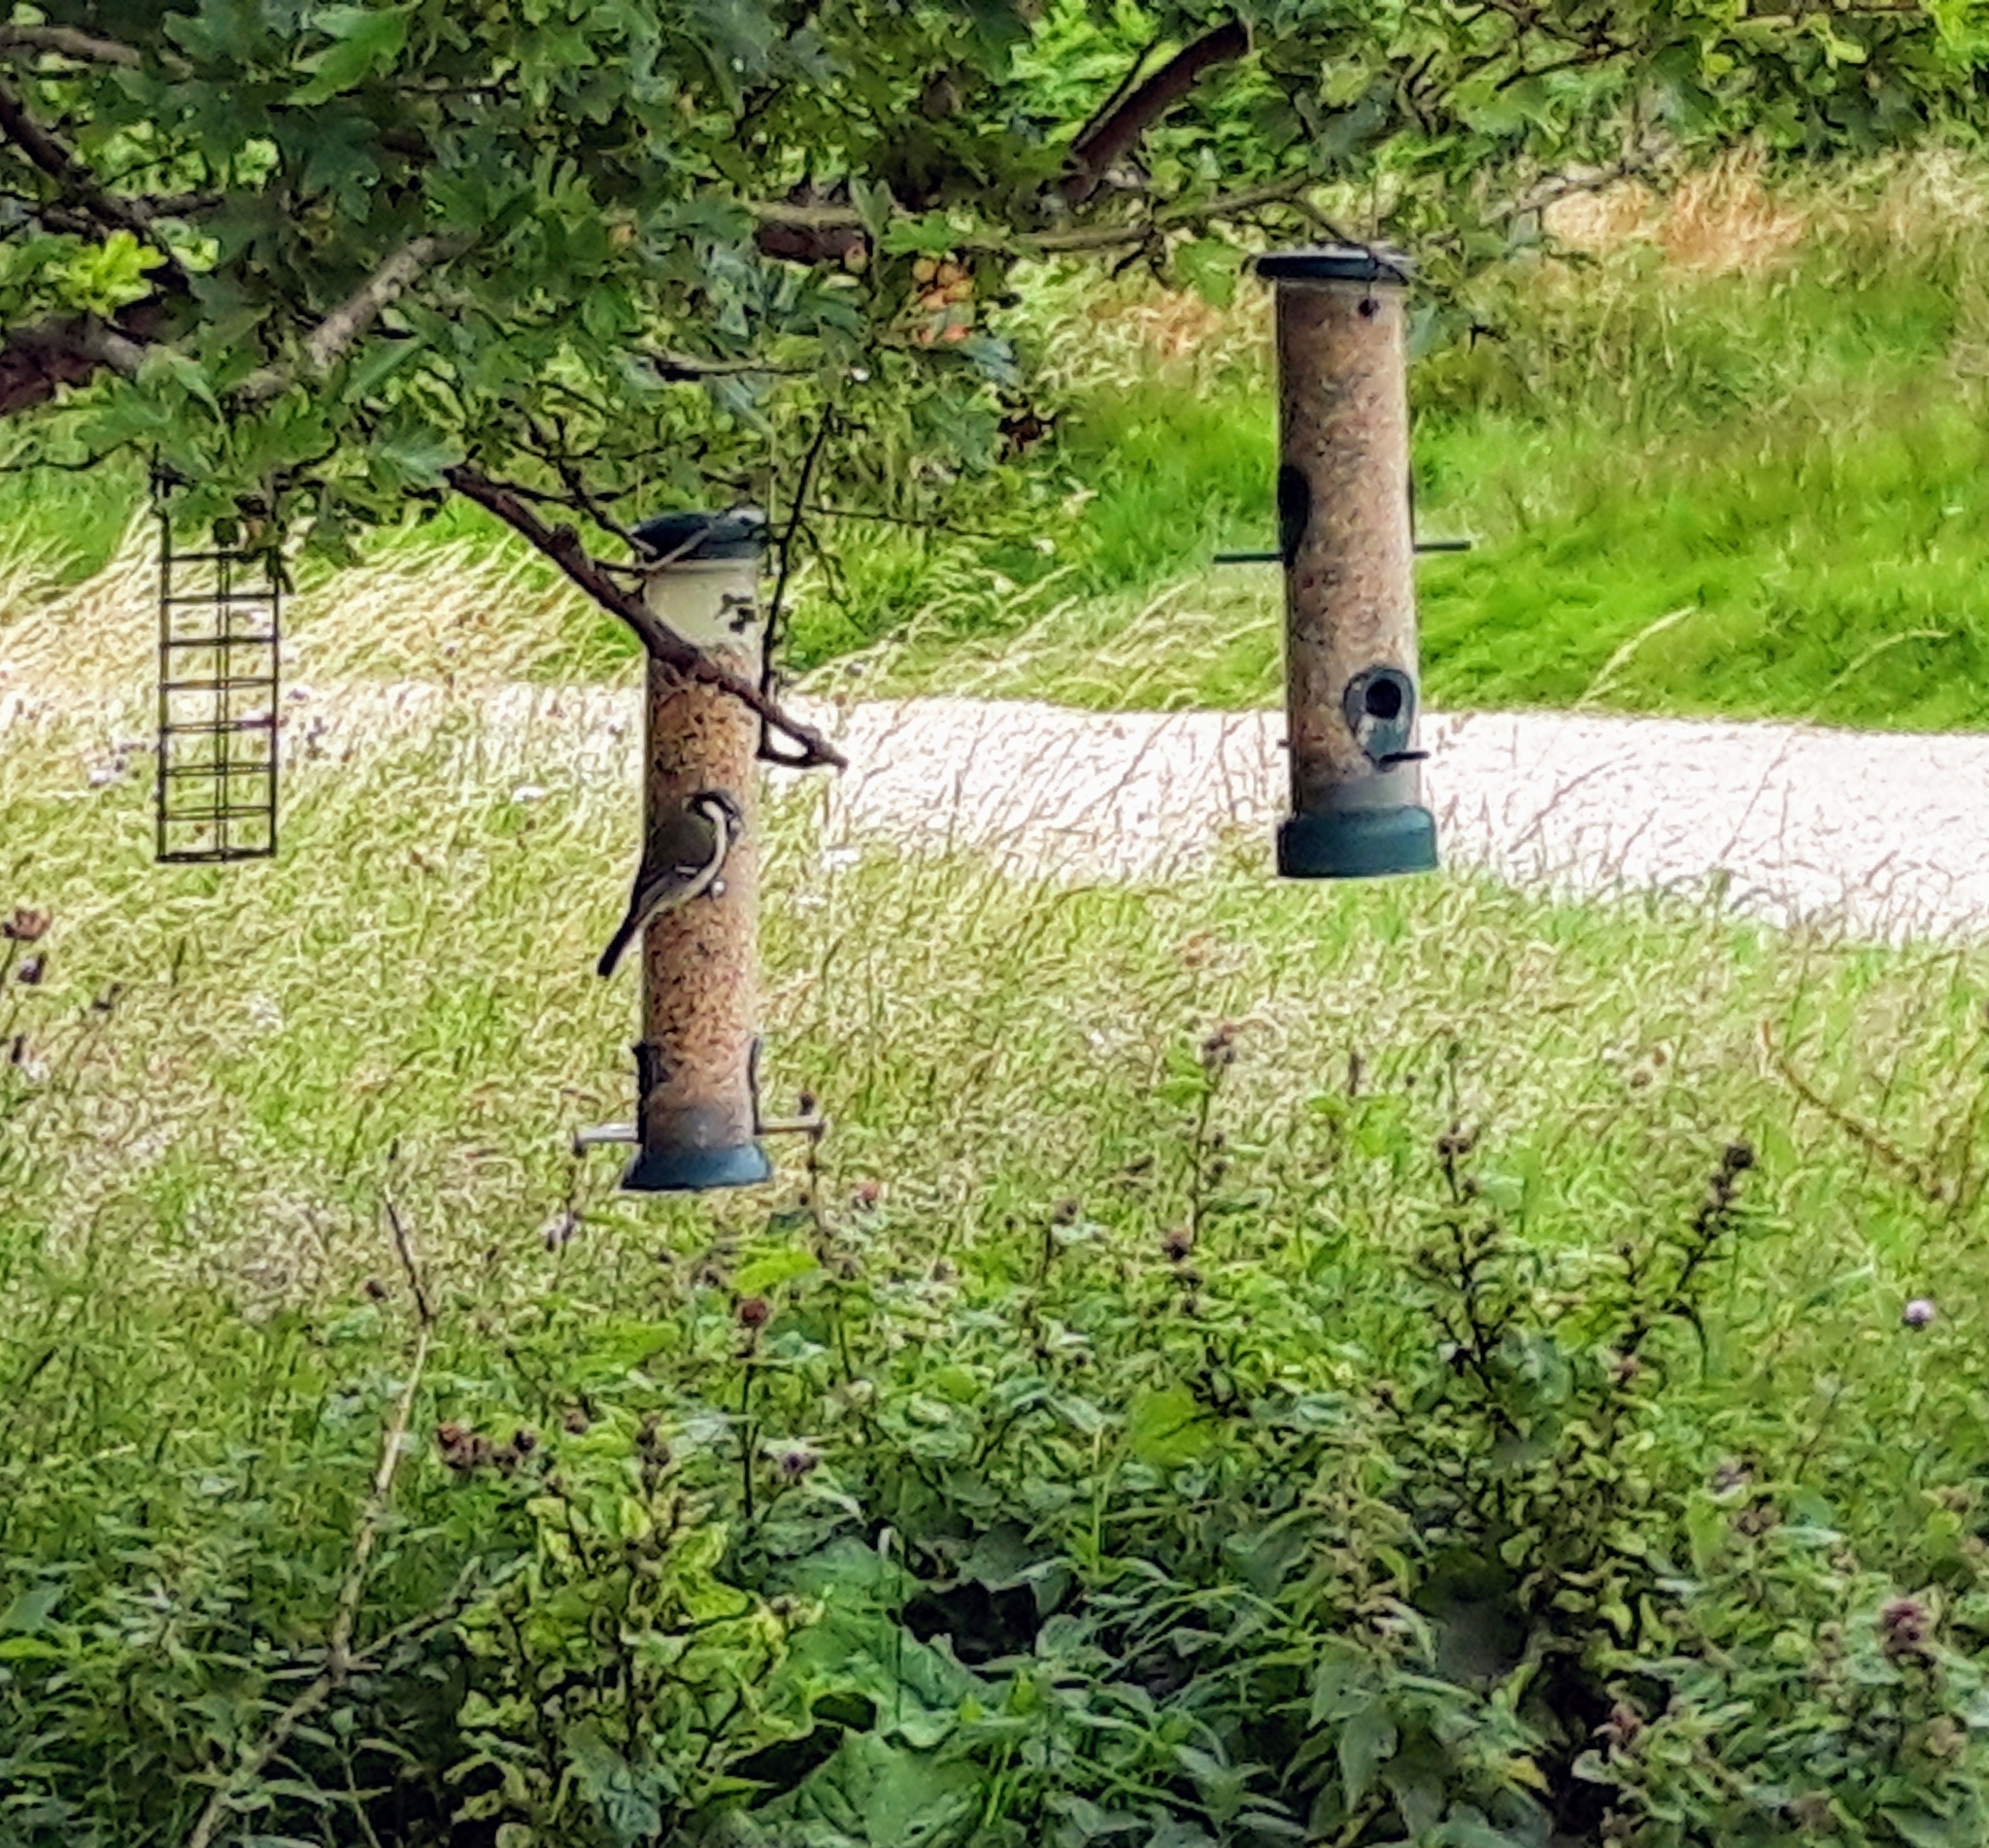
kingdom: Animalia
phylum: Chordata
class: Aves
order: Passeriformes
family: Paridae
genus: Parus
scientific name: Parus major
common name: Great tit
